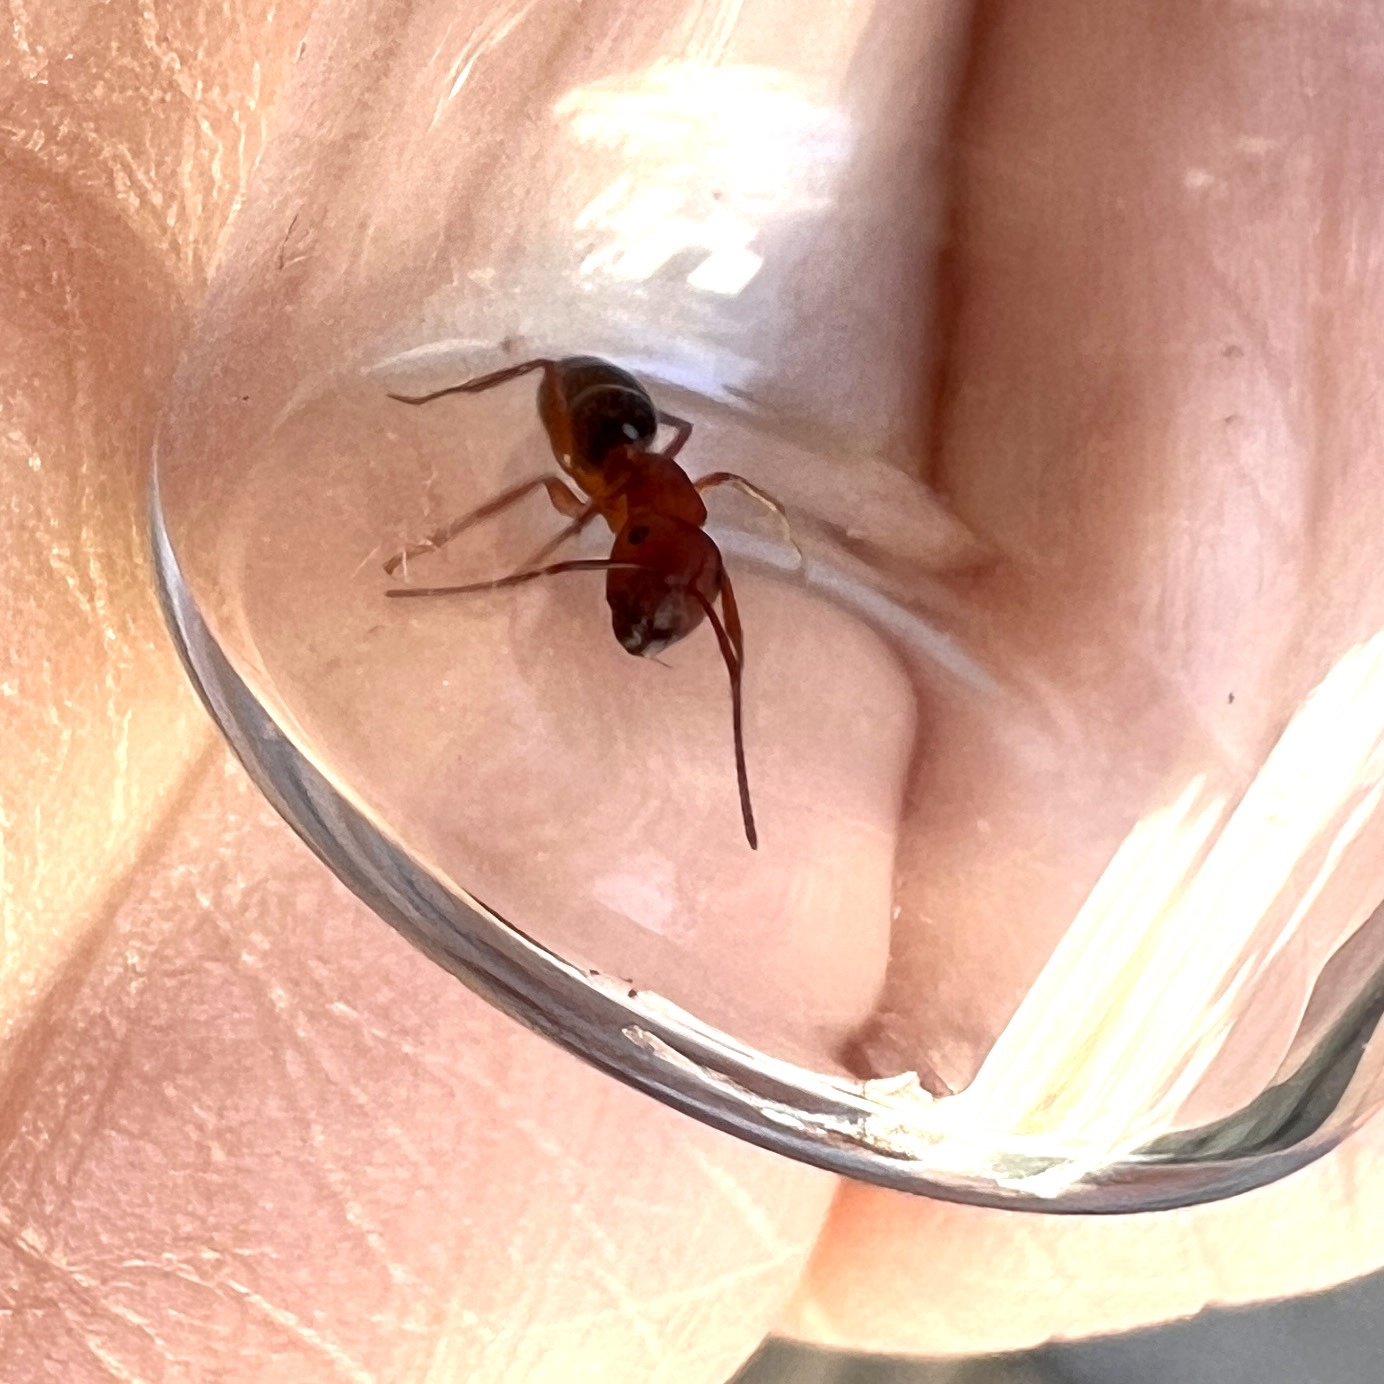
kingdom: Animalia
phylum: Arthropoda
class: Insecta
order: Hymenoptera
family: Formicidae
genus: Camponotus
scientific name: Camponotus decipiens
